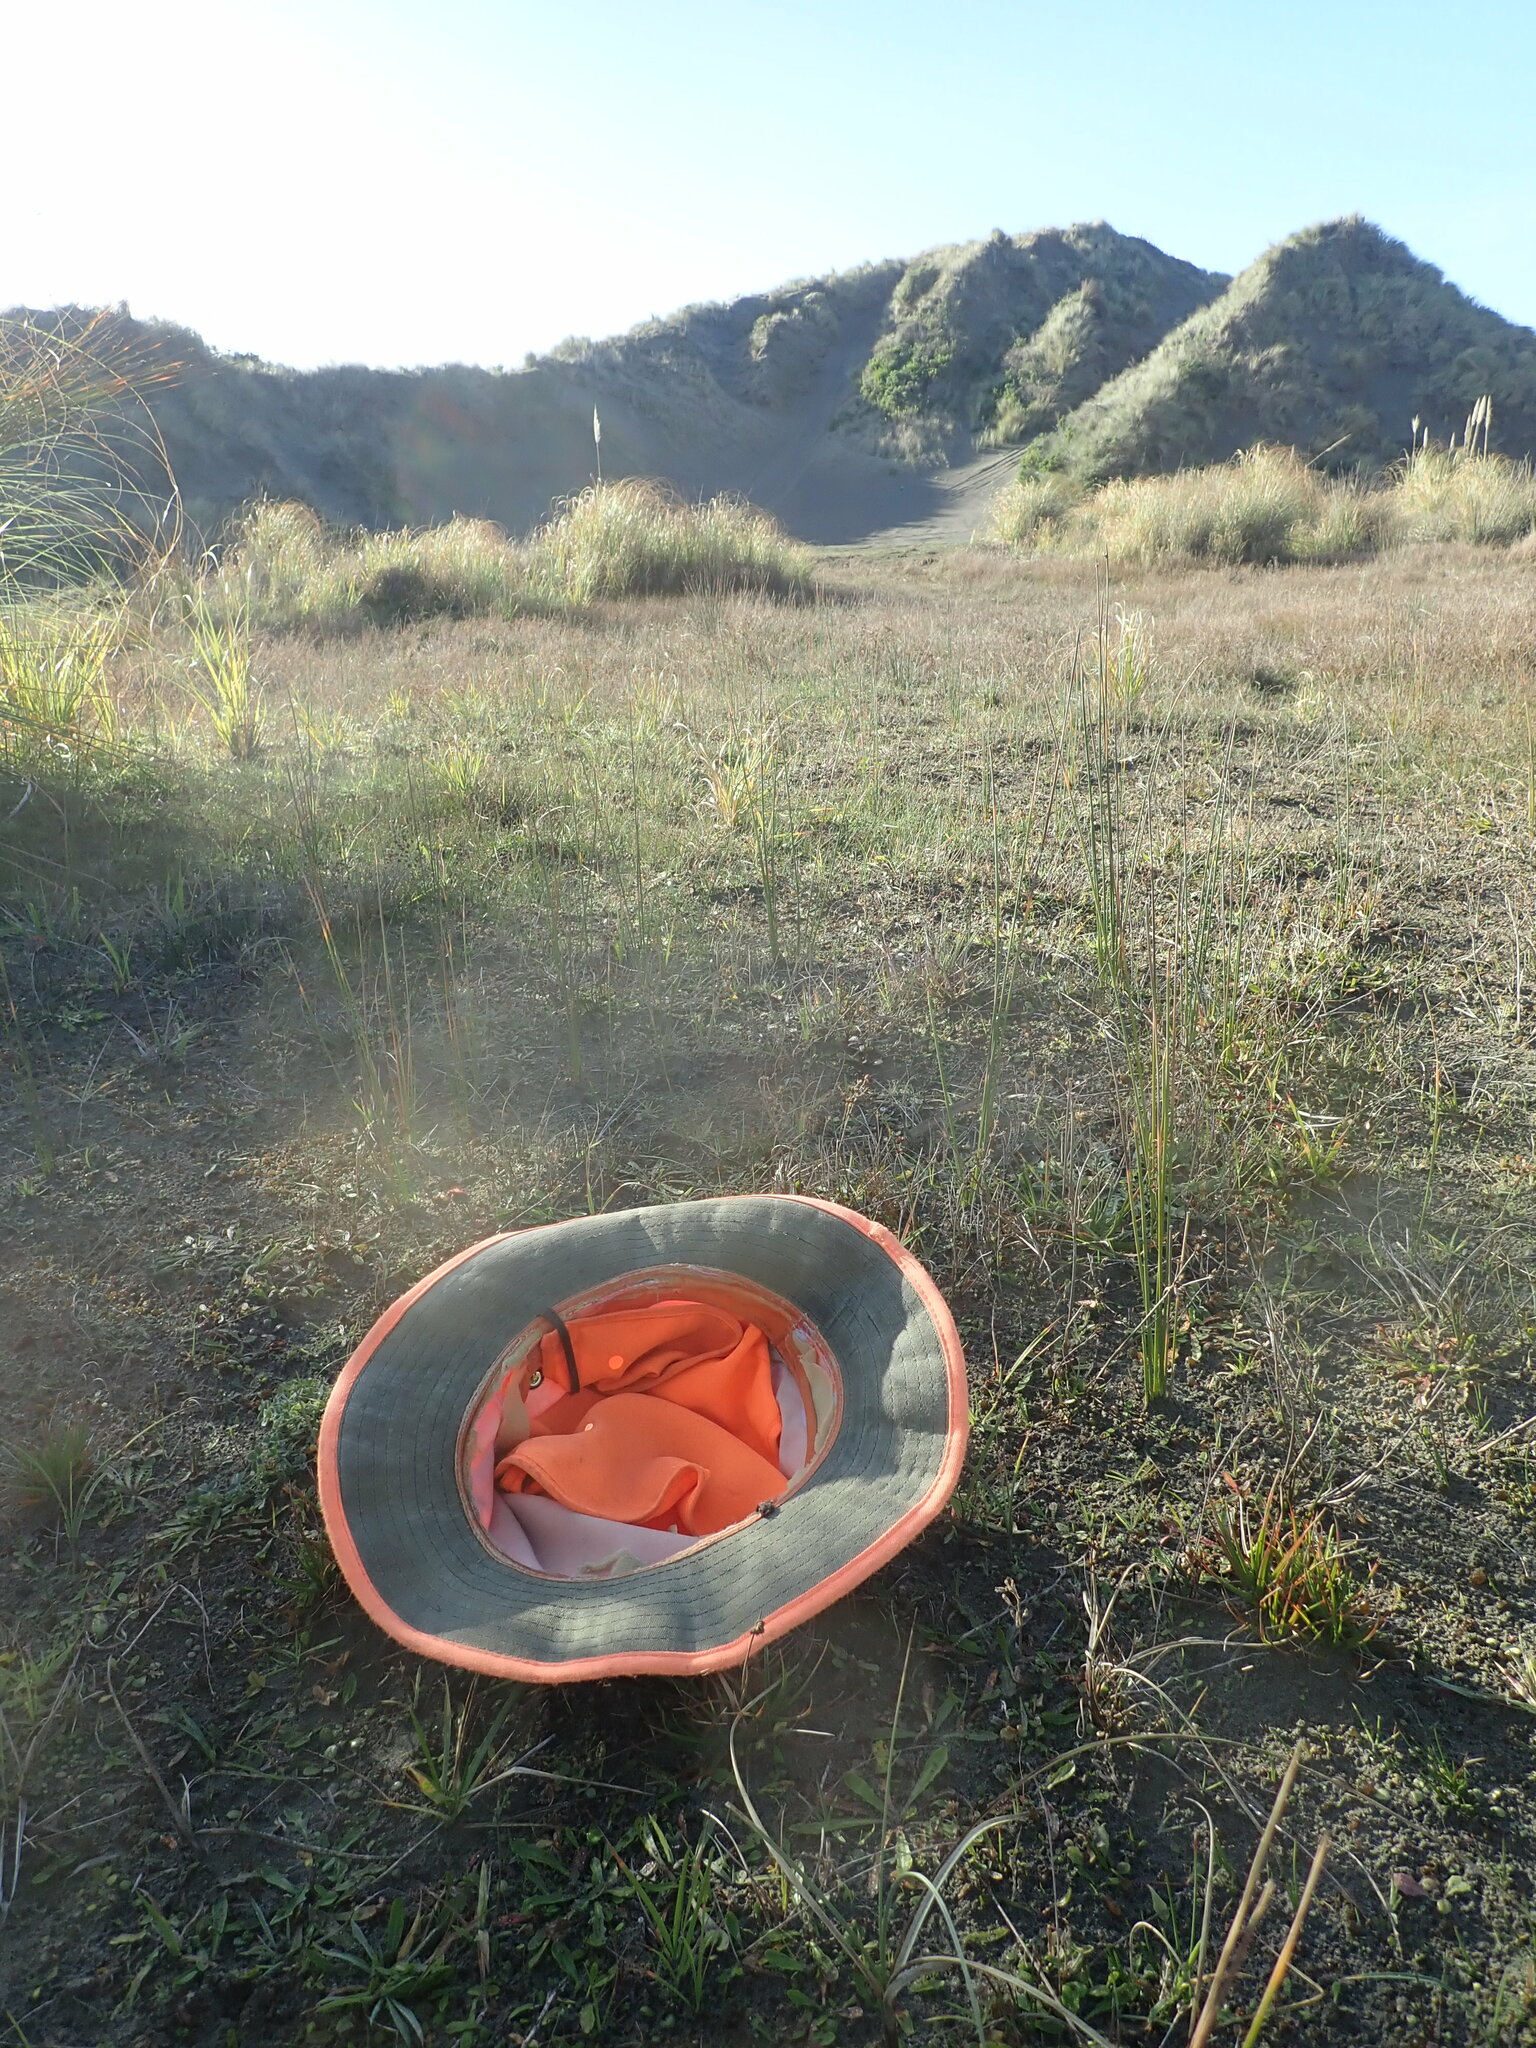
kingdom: Plantae
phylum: Tracheophyta
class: Liliopsida
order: Poales
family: Juncaceae
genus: Juncus
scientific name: Juncus caespiticius
